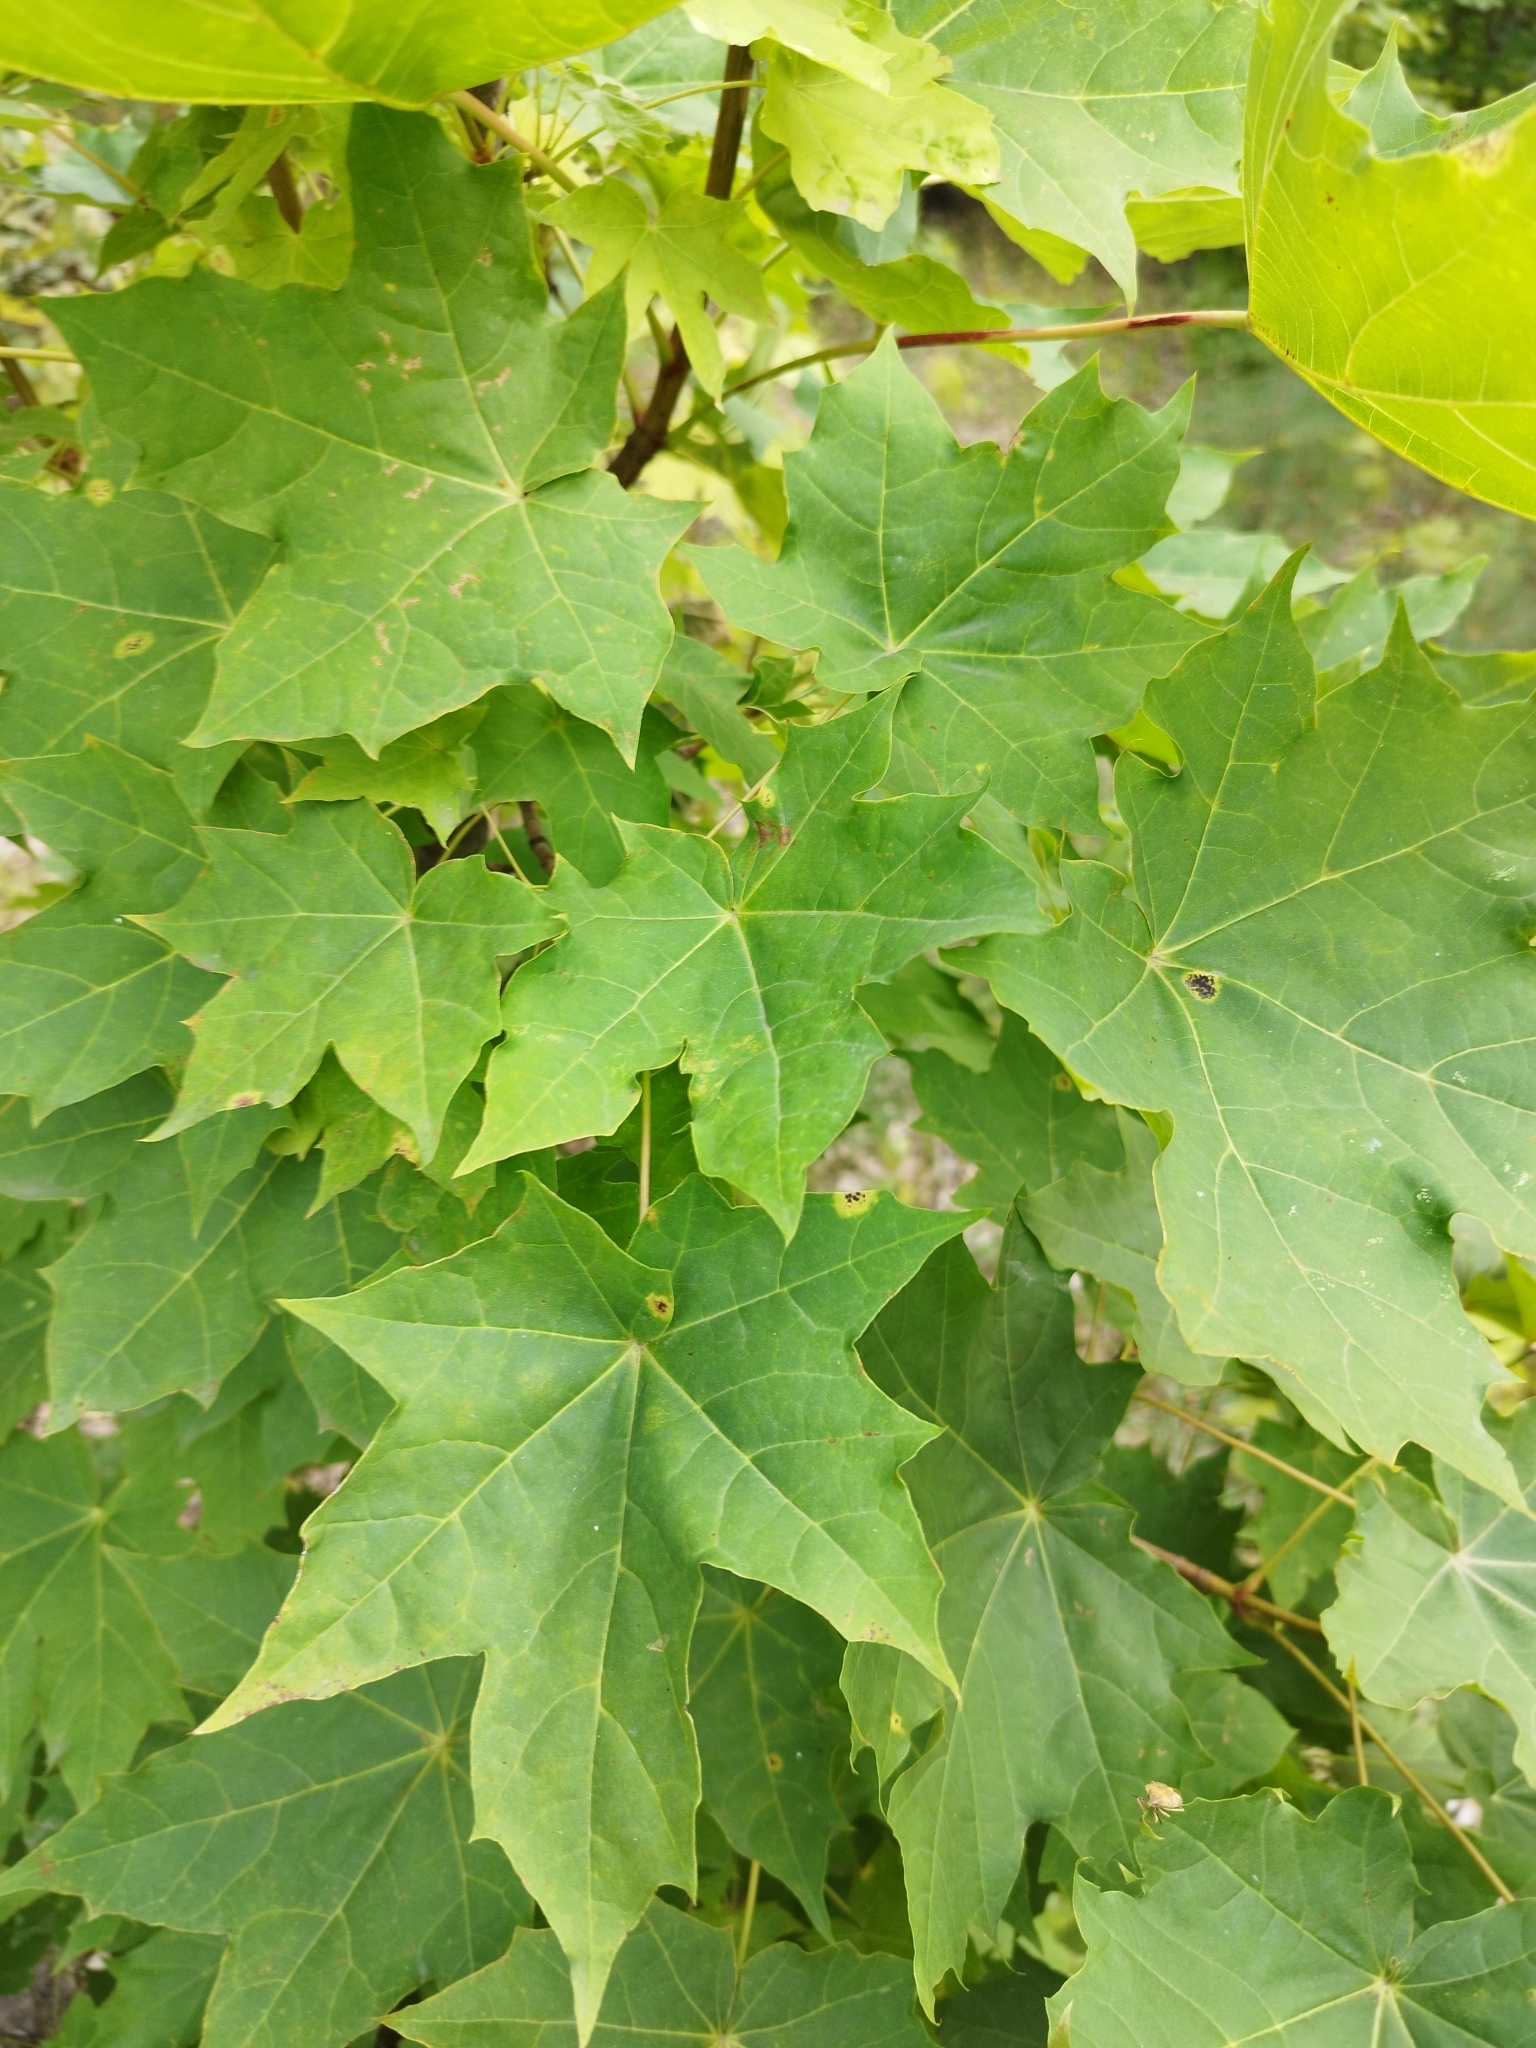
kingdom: Plantae
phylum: Tracheophyta
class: Magnoliopsida
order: Sapindales
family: Sapindaceae
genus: Acer
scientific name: Acer platanoides
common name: Norway maple
